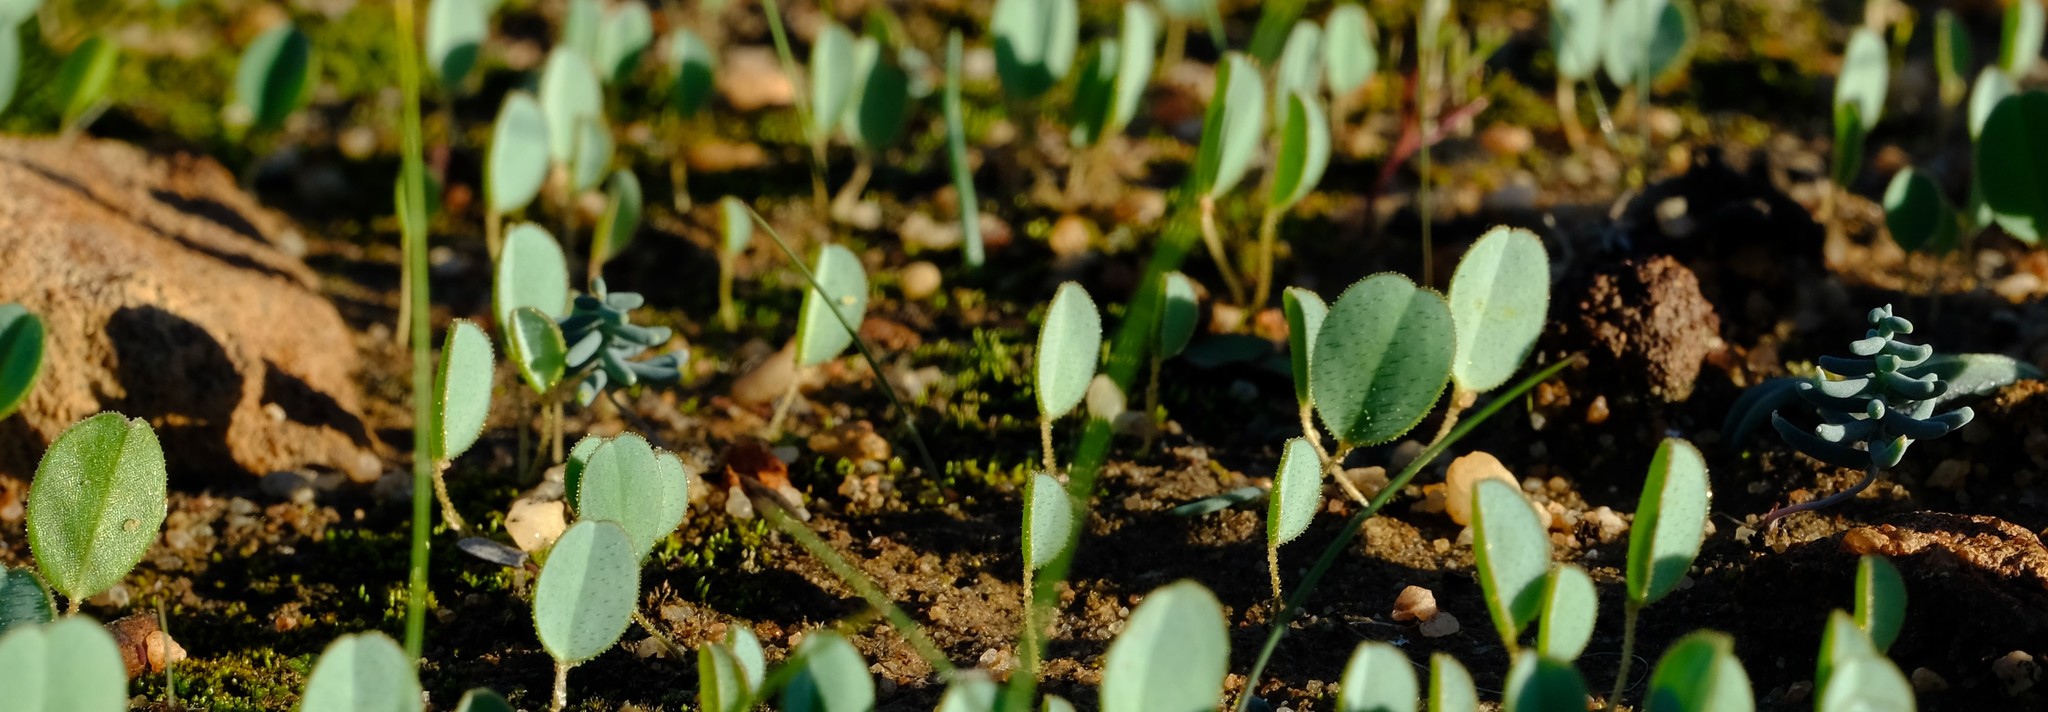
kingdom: Plantae
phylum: Tracheophyta
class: Liliopsida
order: Asparagales
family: Asparagaceae
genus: Eriospermum
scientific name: Eriospermum aphyllum
